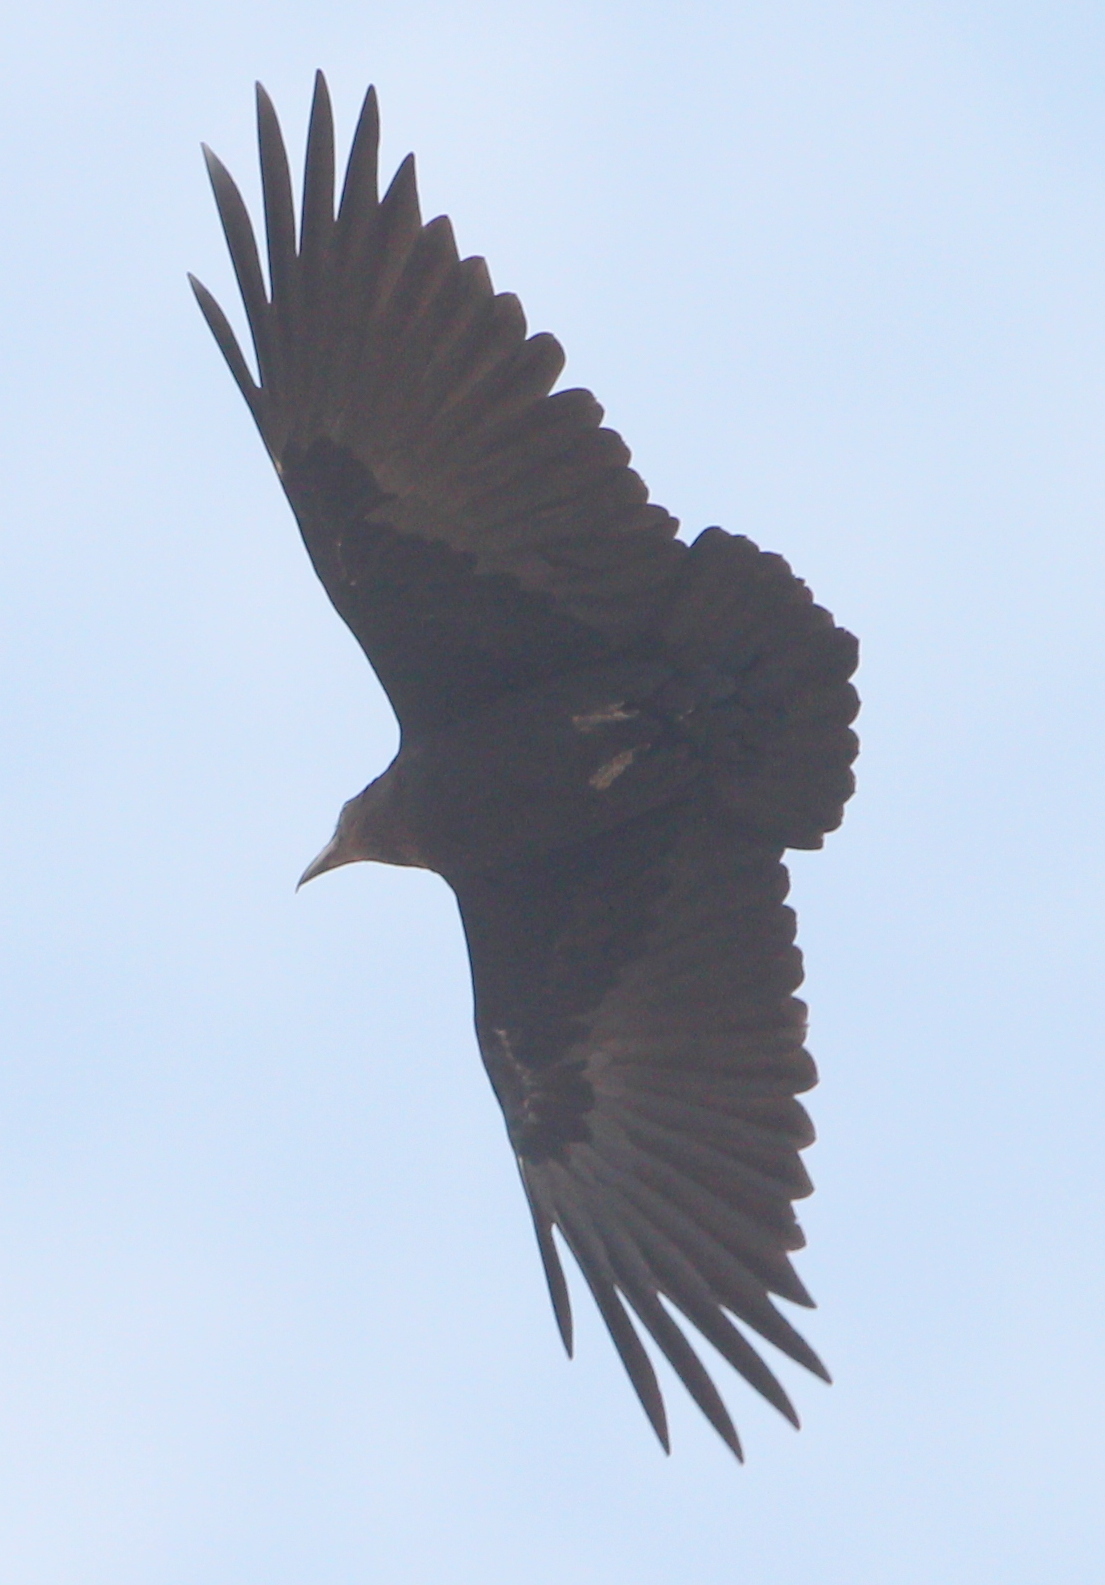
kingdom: Animalia
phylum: Chordata
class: Aves
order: Passeriformes
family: Corvidae
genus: Corvus
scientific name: Corvus rhipidurus
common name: Fan-tailed raven
